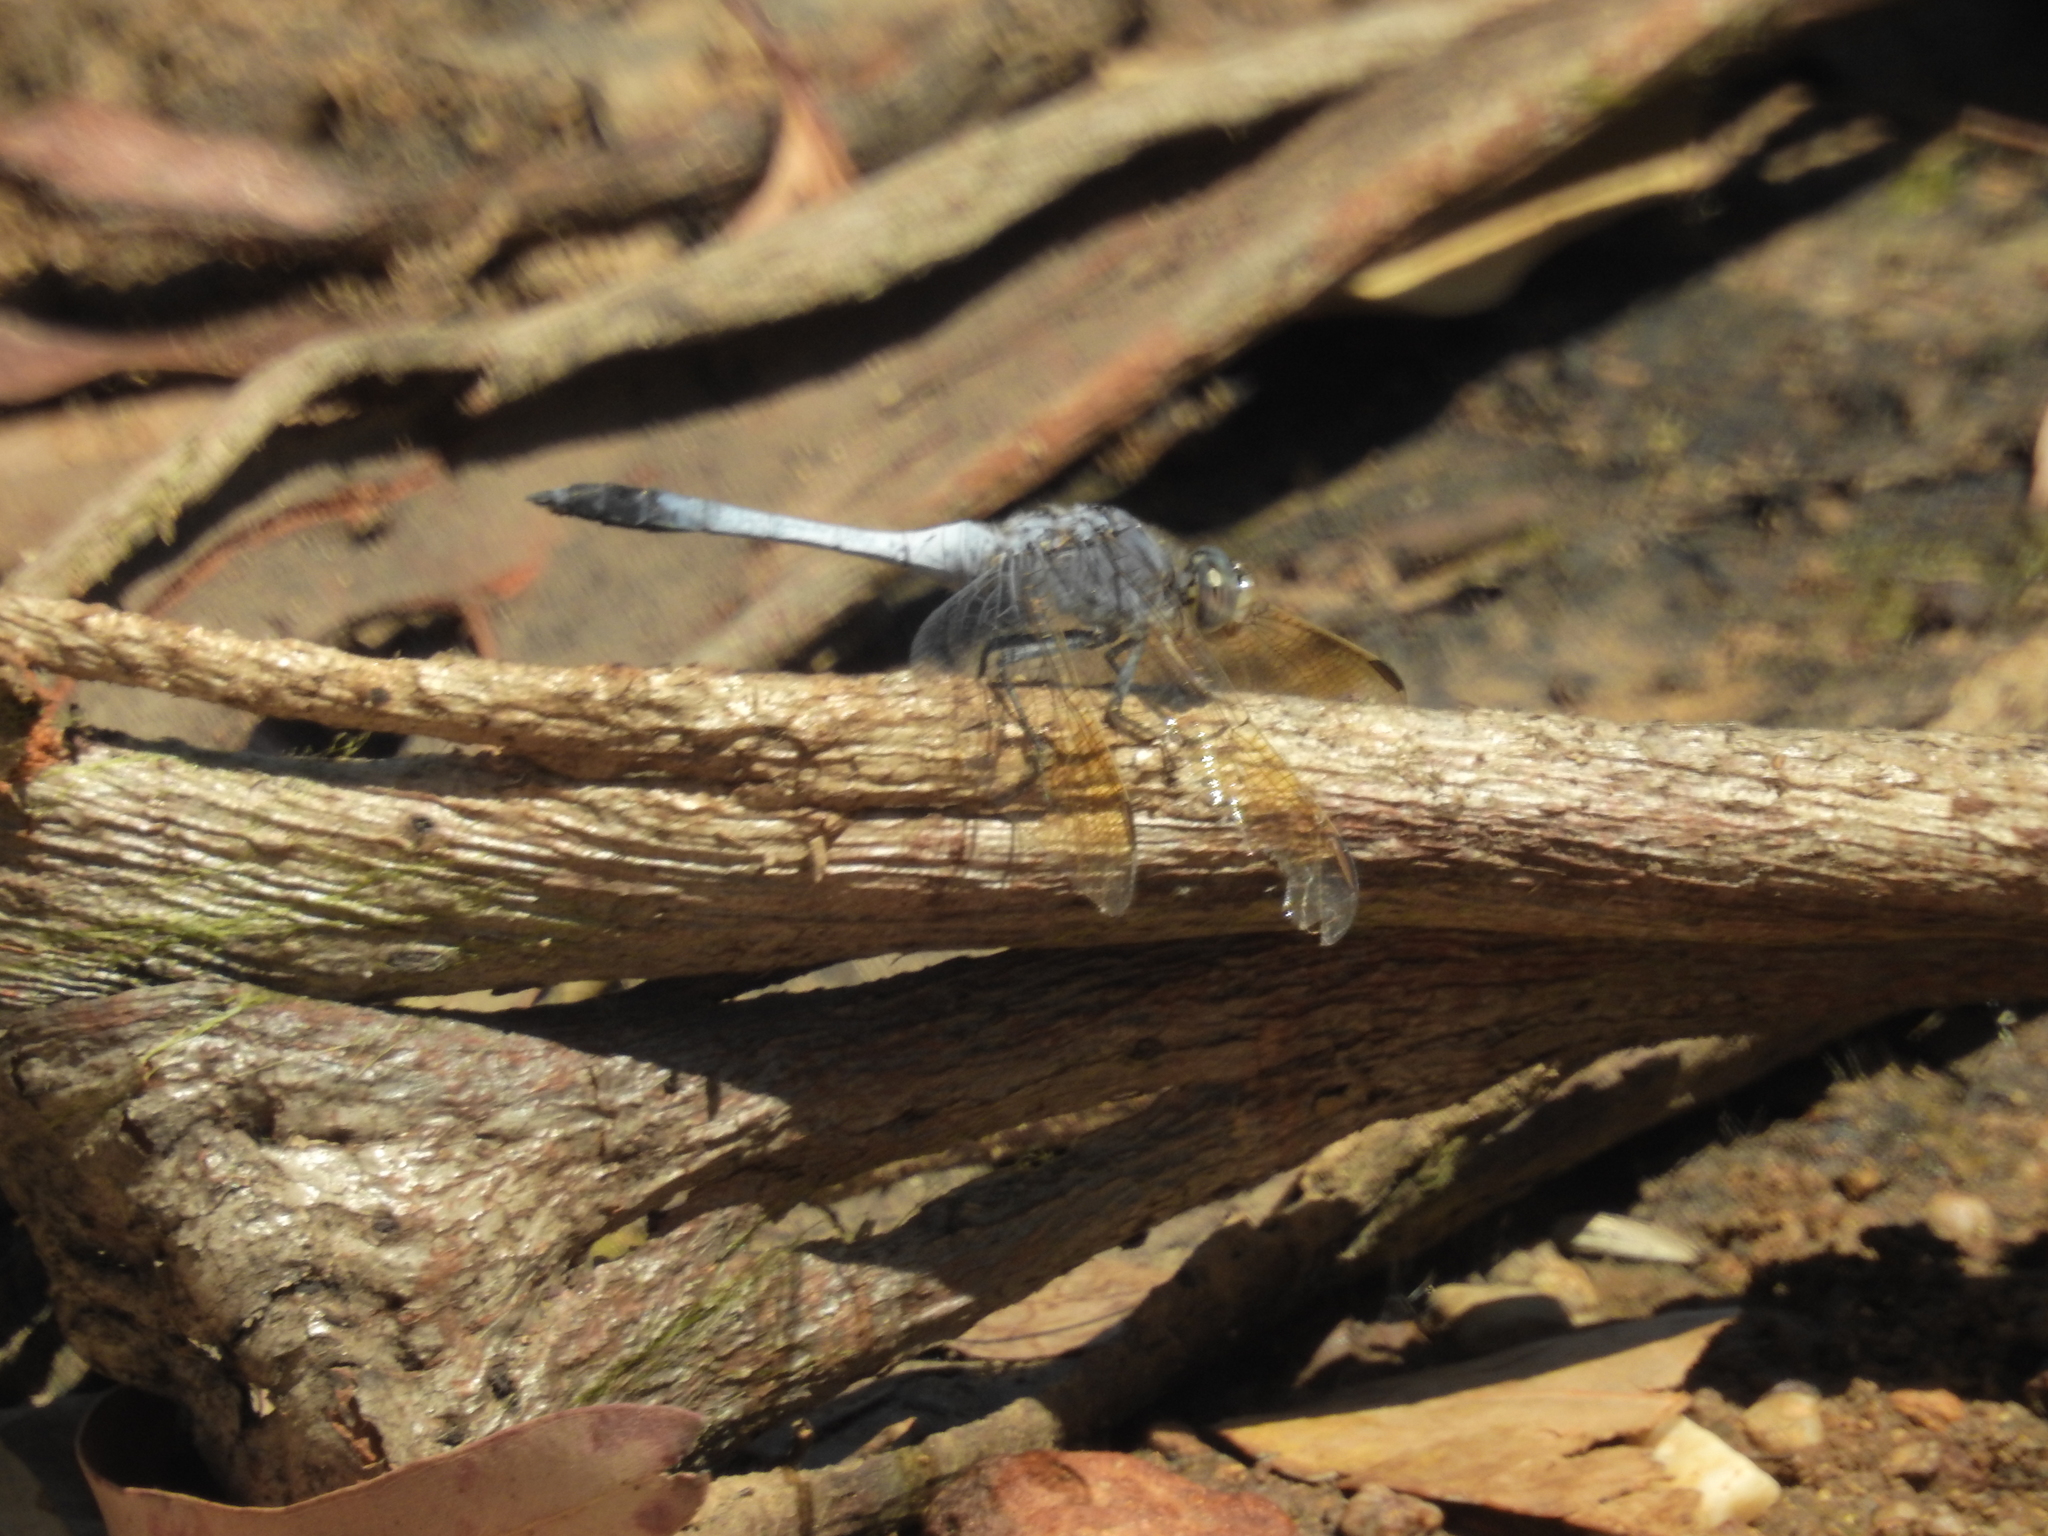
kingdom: Animalia
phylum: Arthropoda
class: Insecta
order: Odonata
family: Libellulidae
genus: Orthetrum
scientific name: Orthetrum caledonicum
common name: Blue skimmer
